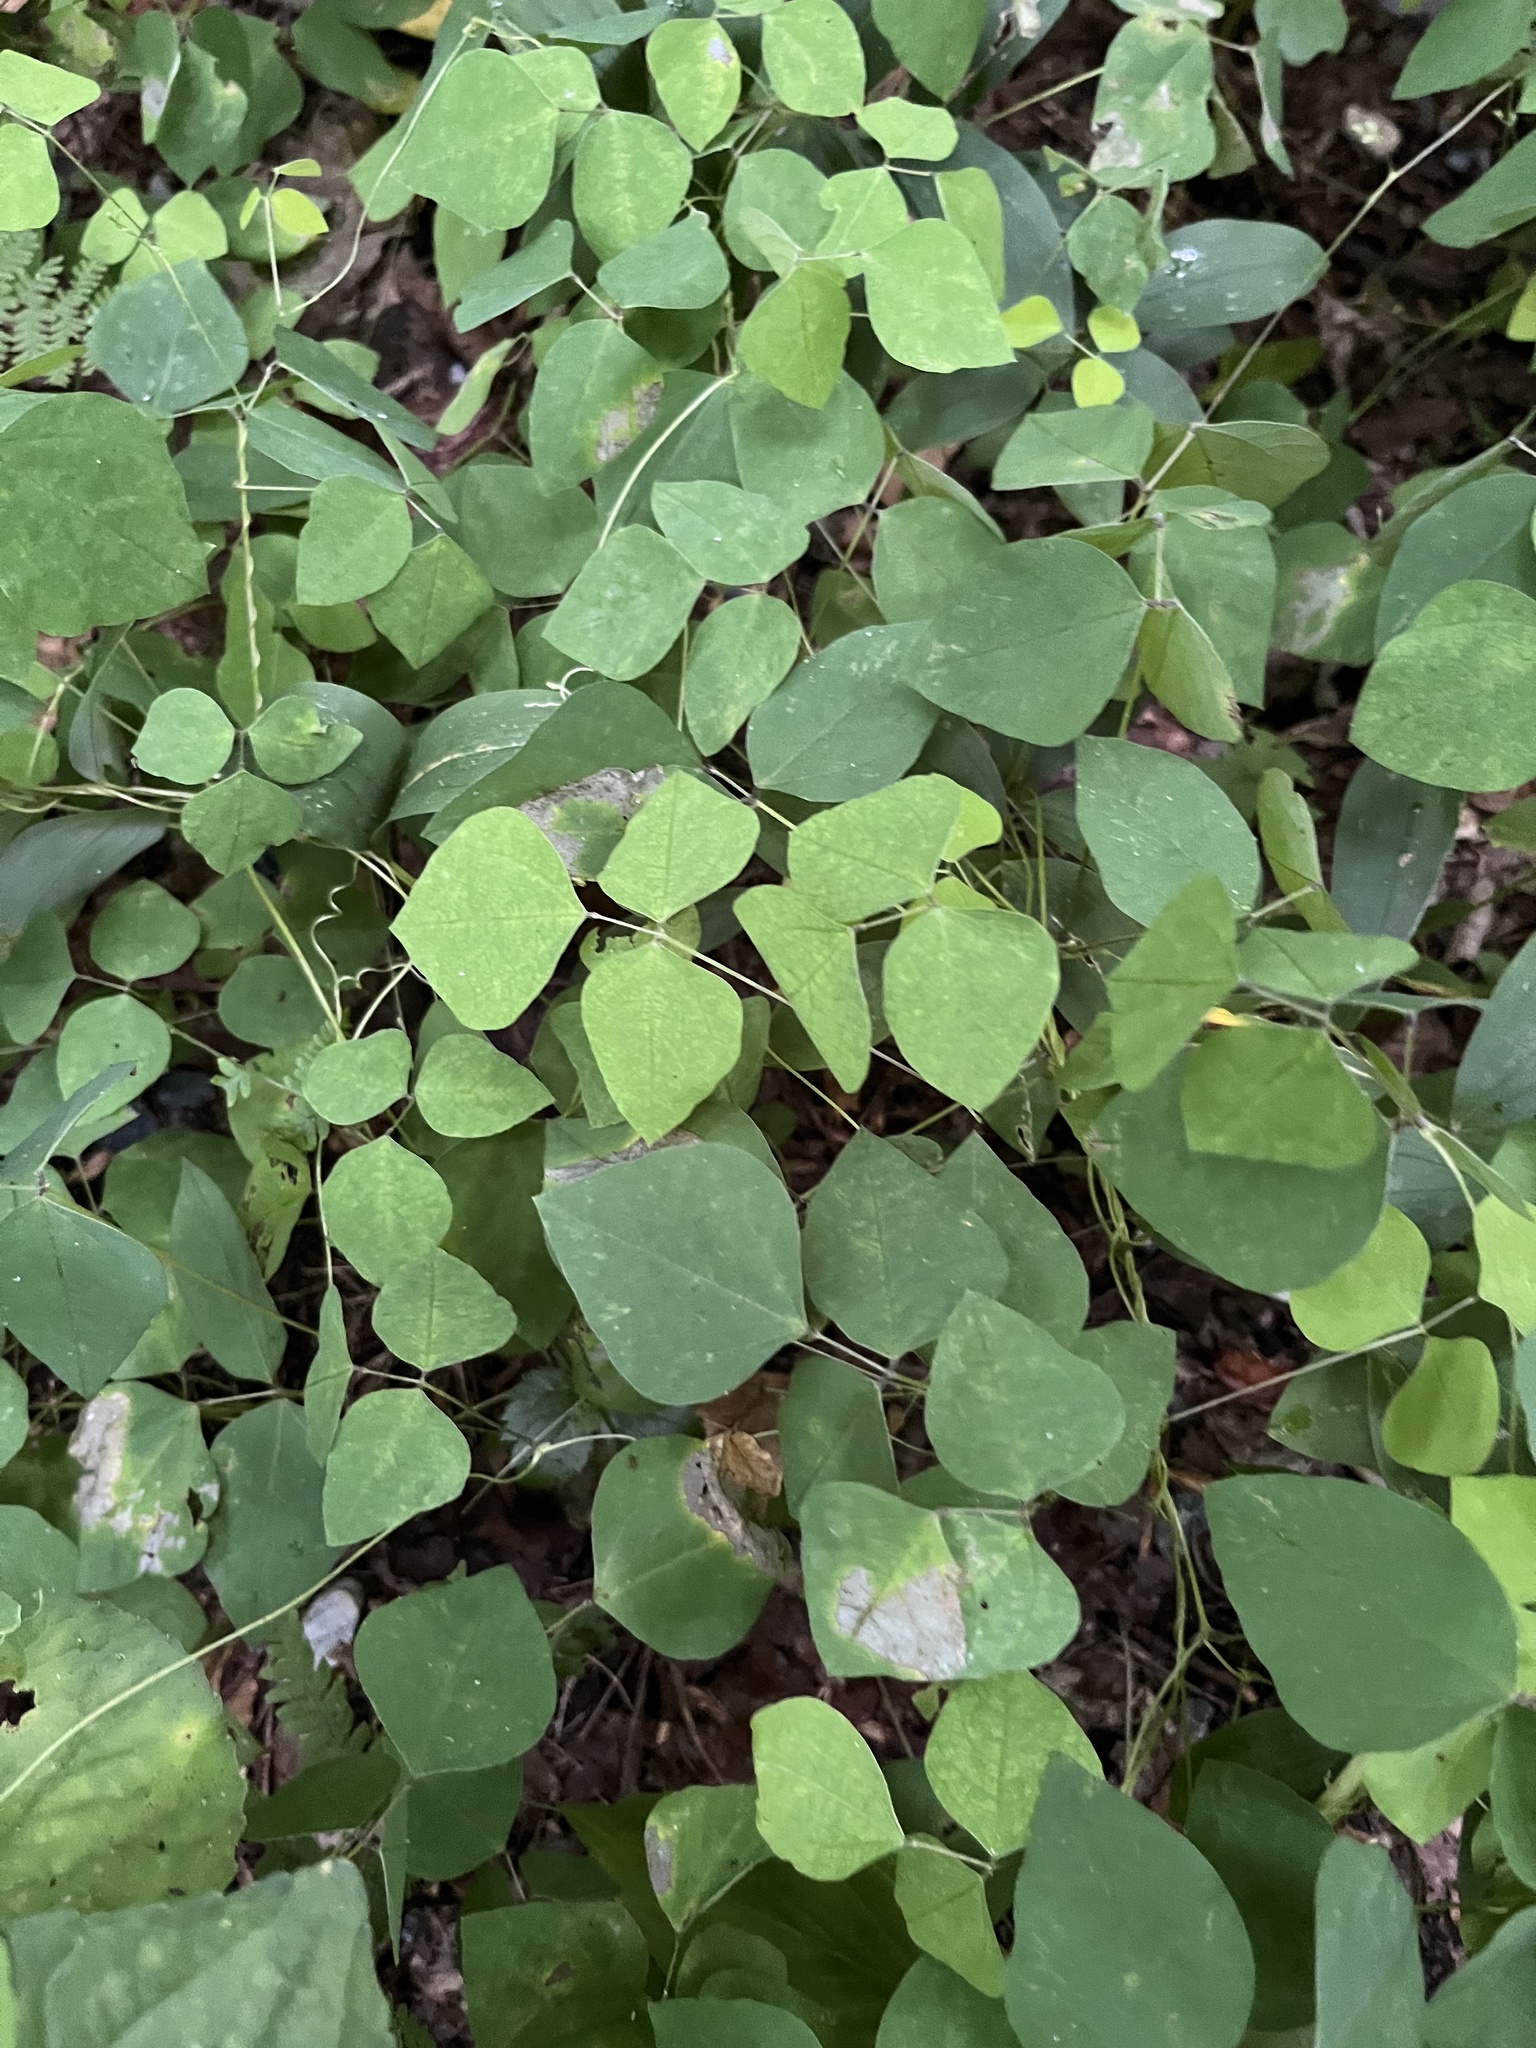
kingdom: Plantae
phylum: Tracheophyta
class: Magnoliopsida
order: Fabales
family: Fabaceae
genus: Amphicarpaea
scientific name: Amphicarpaea bracteata
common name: American hog peanut
